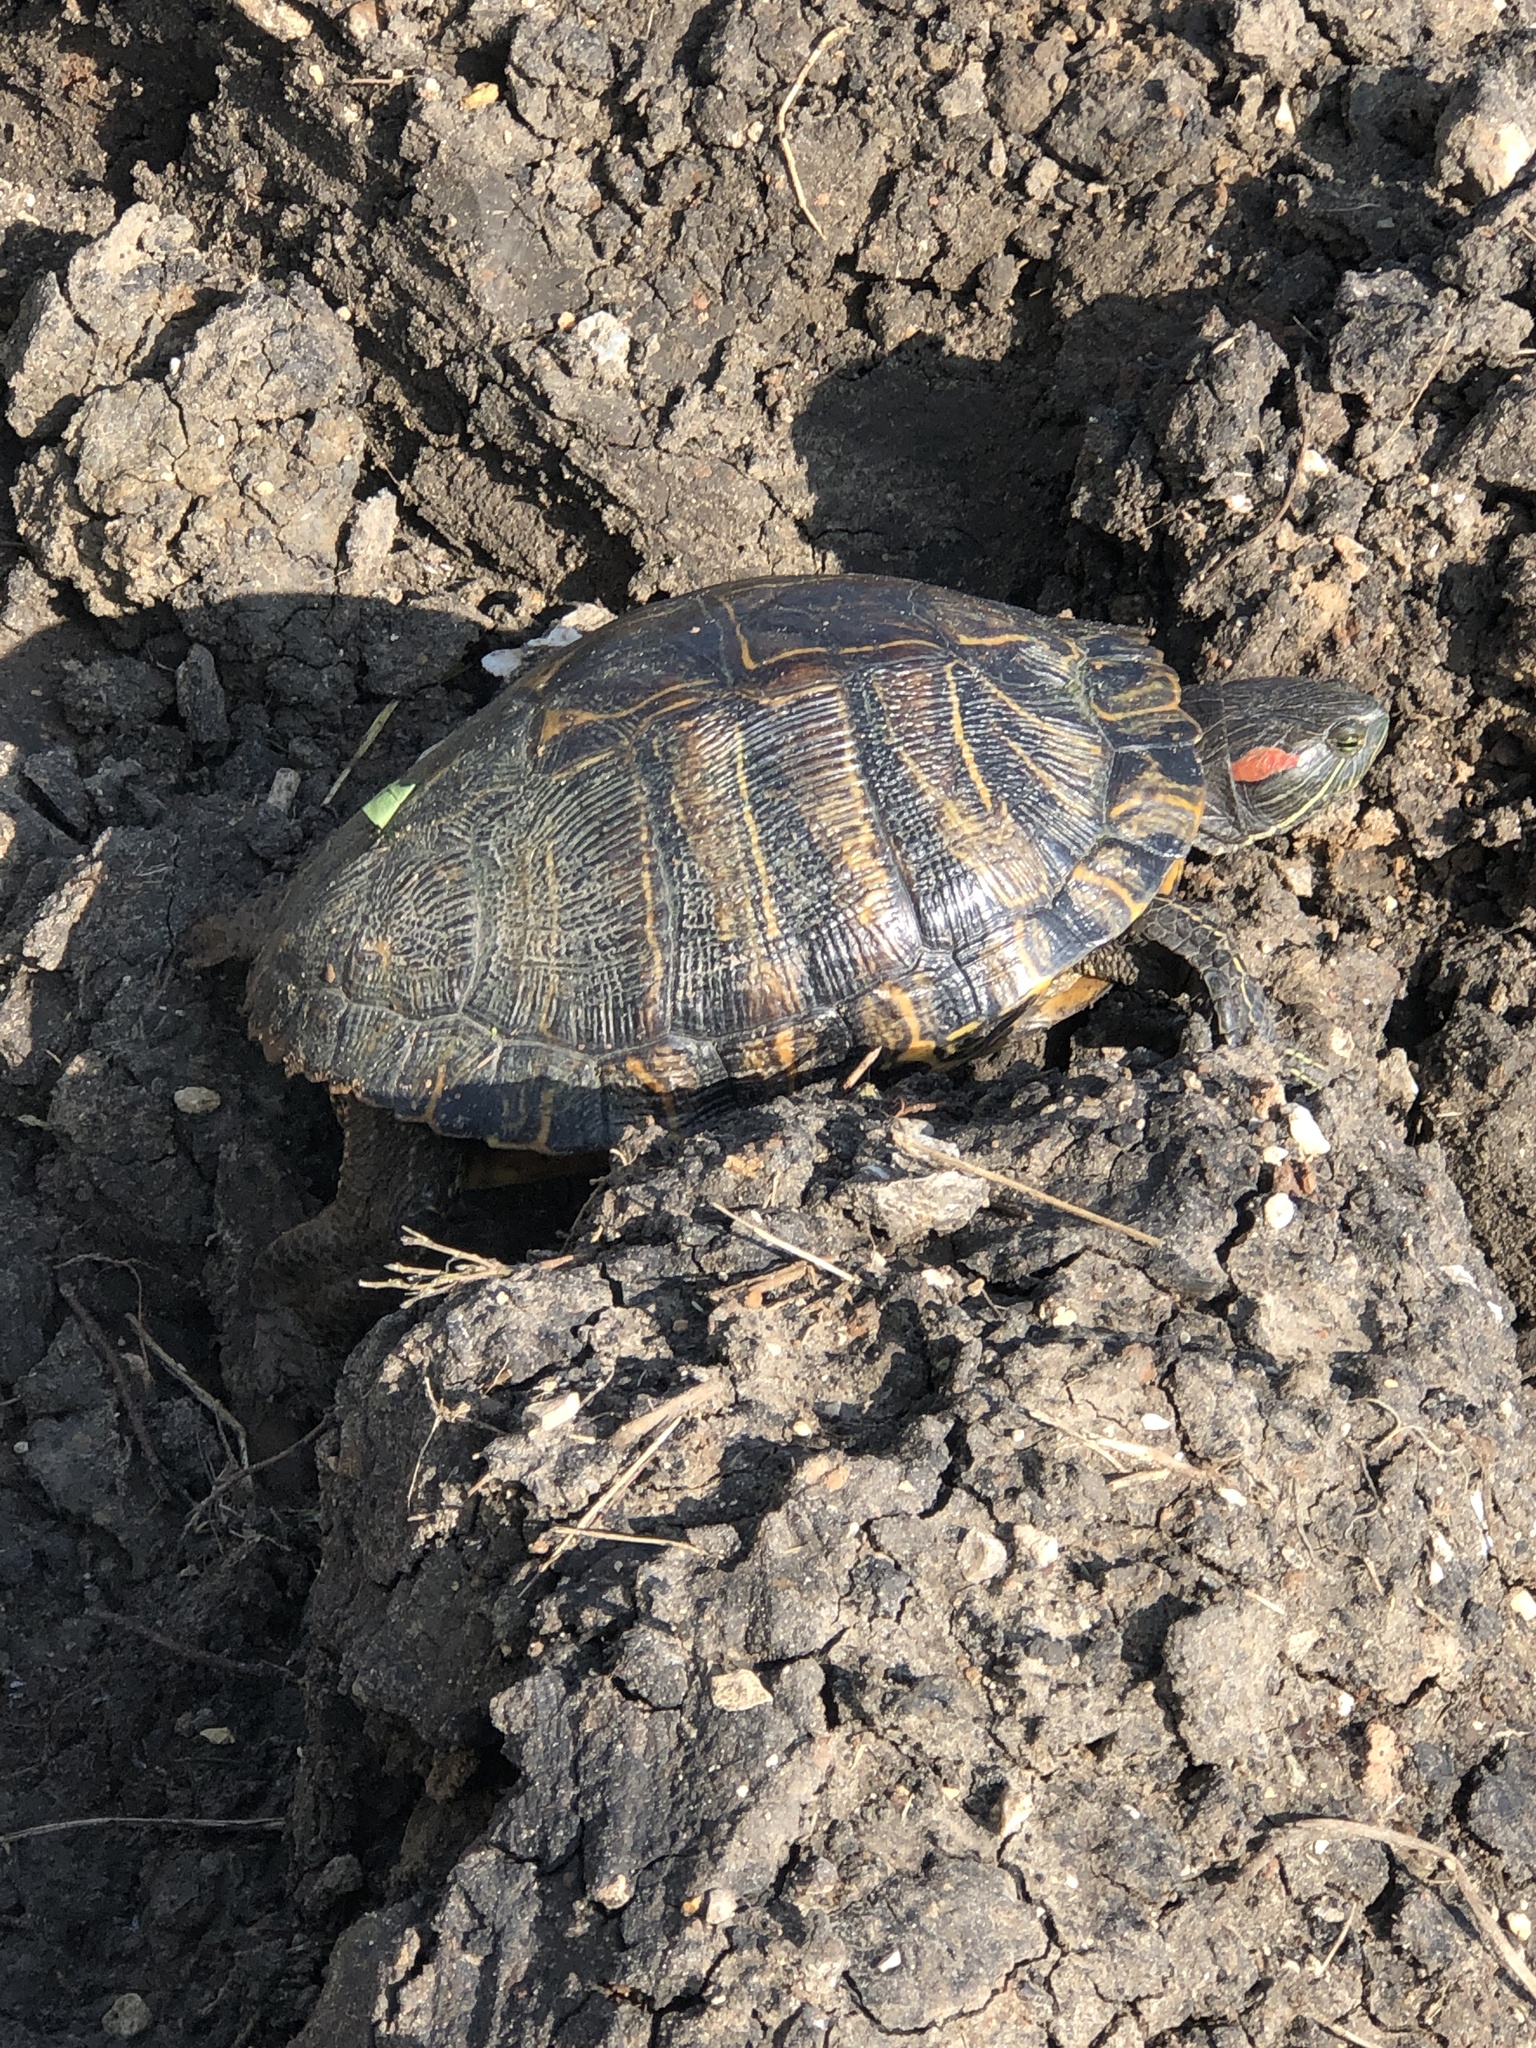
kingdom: Animalia
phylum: Chordata
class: Testudines
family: Emydidae
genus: Trachemys
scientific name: Trachemys scripta
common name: Slider
